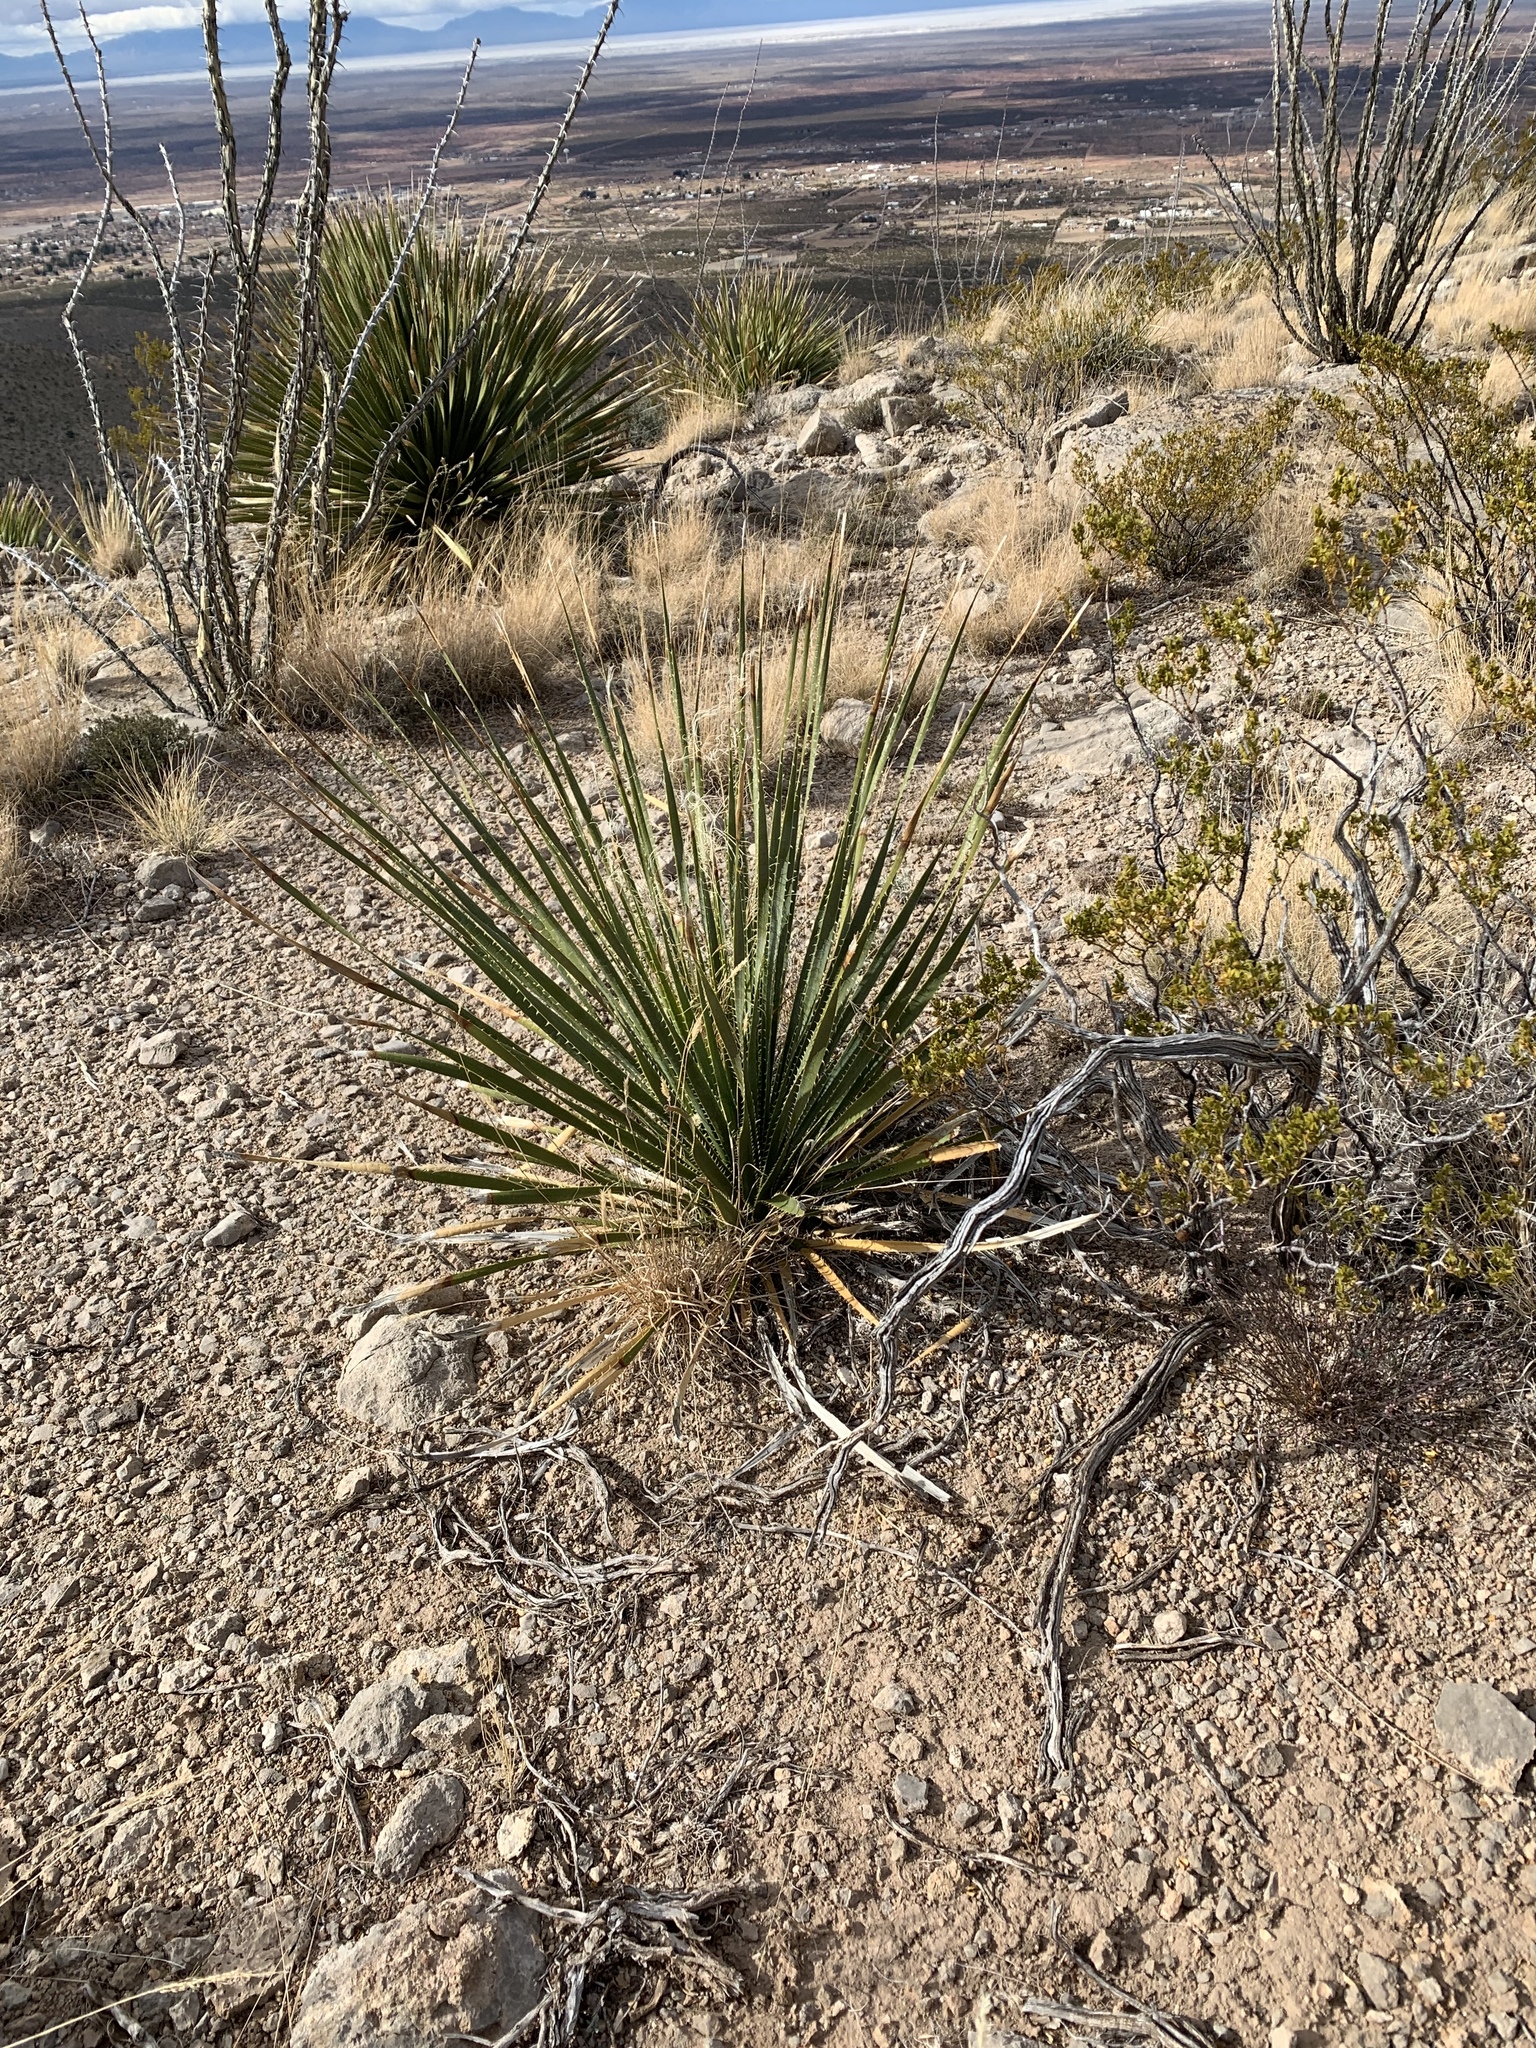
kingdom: Plantae
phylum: Tracheophyta
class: Liliopsida
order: Asparagales
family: Asparagaceae
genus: Dasylirion
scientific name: Dasylirion wheeleri
